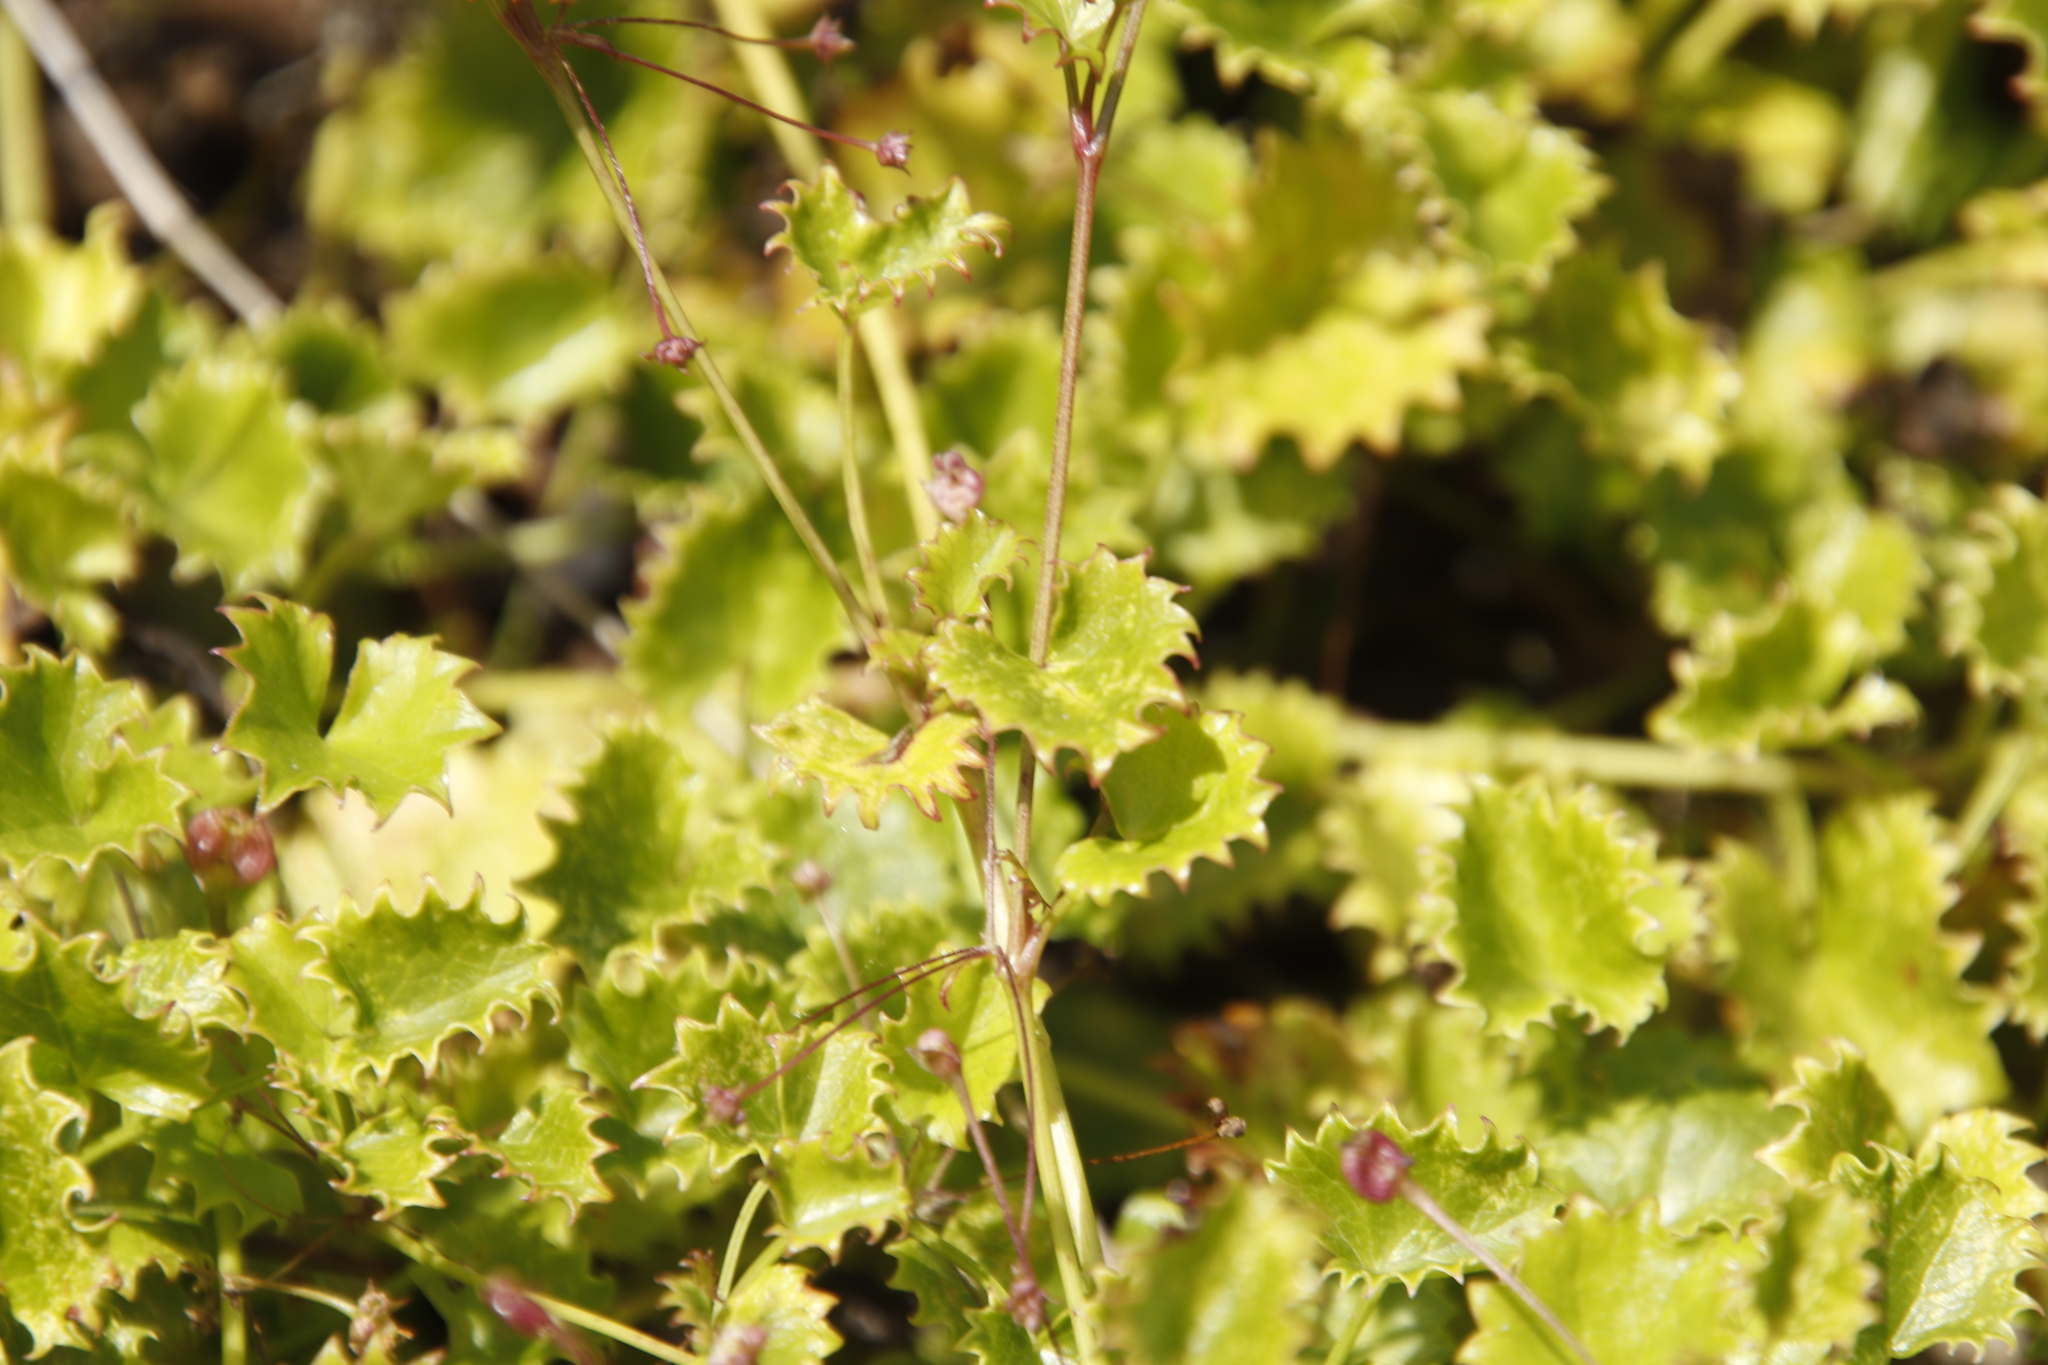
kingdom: Plantae
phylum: Tracheophyta
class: Magnoliopsida
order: Apiales
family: Apiaceae
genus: Centella
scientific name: Centella callioda
